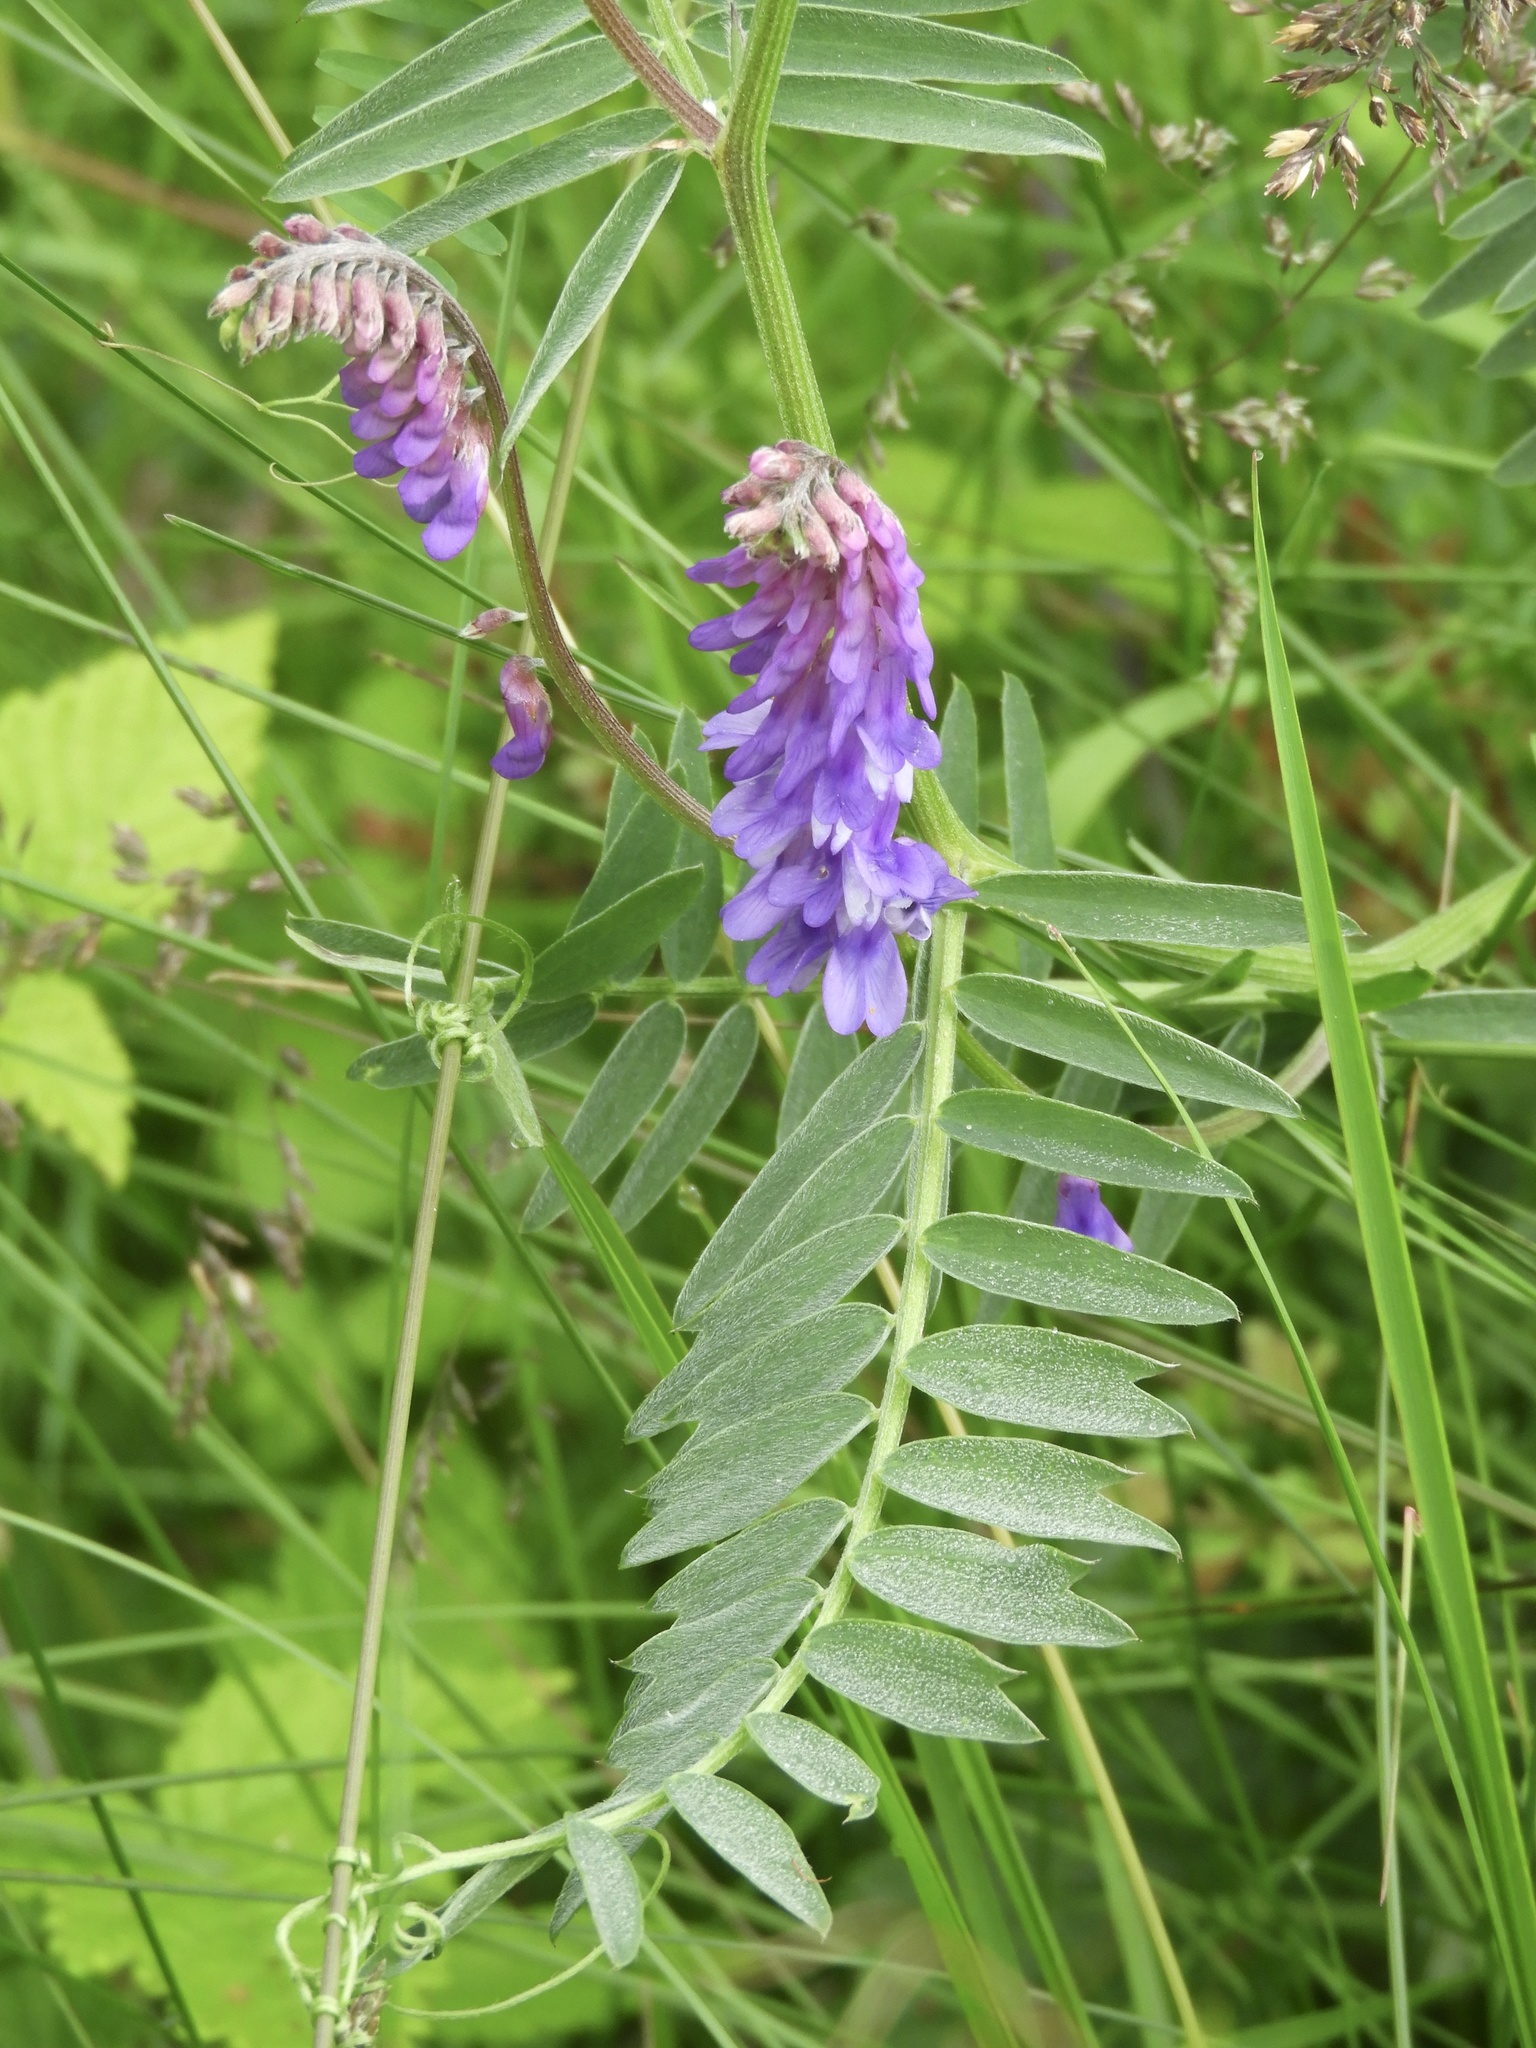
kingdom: Plantae
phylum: Tracheophyta
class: Magnoliopsida
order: Fabales
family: Fabaceae
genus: Vicia
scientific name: Vicia cracca
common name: Bird vetch
